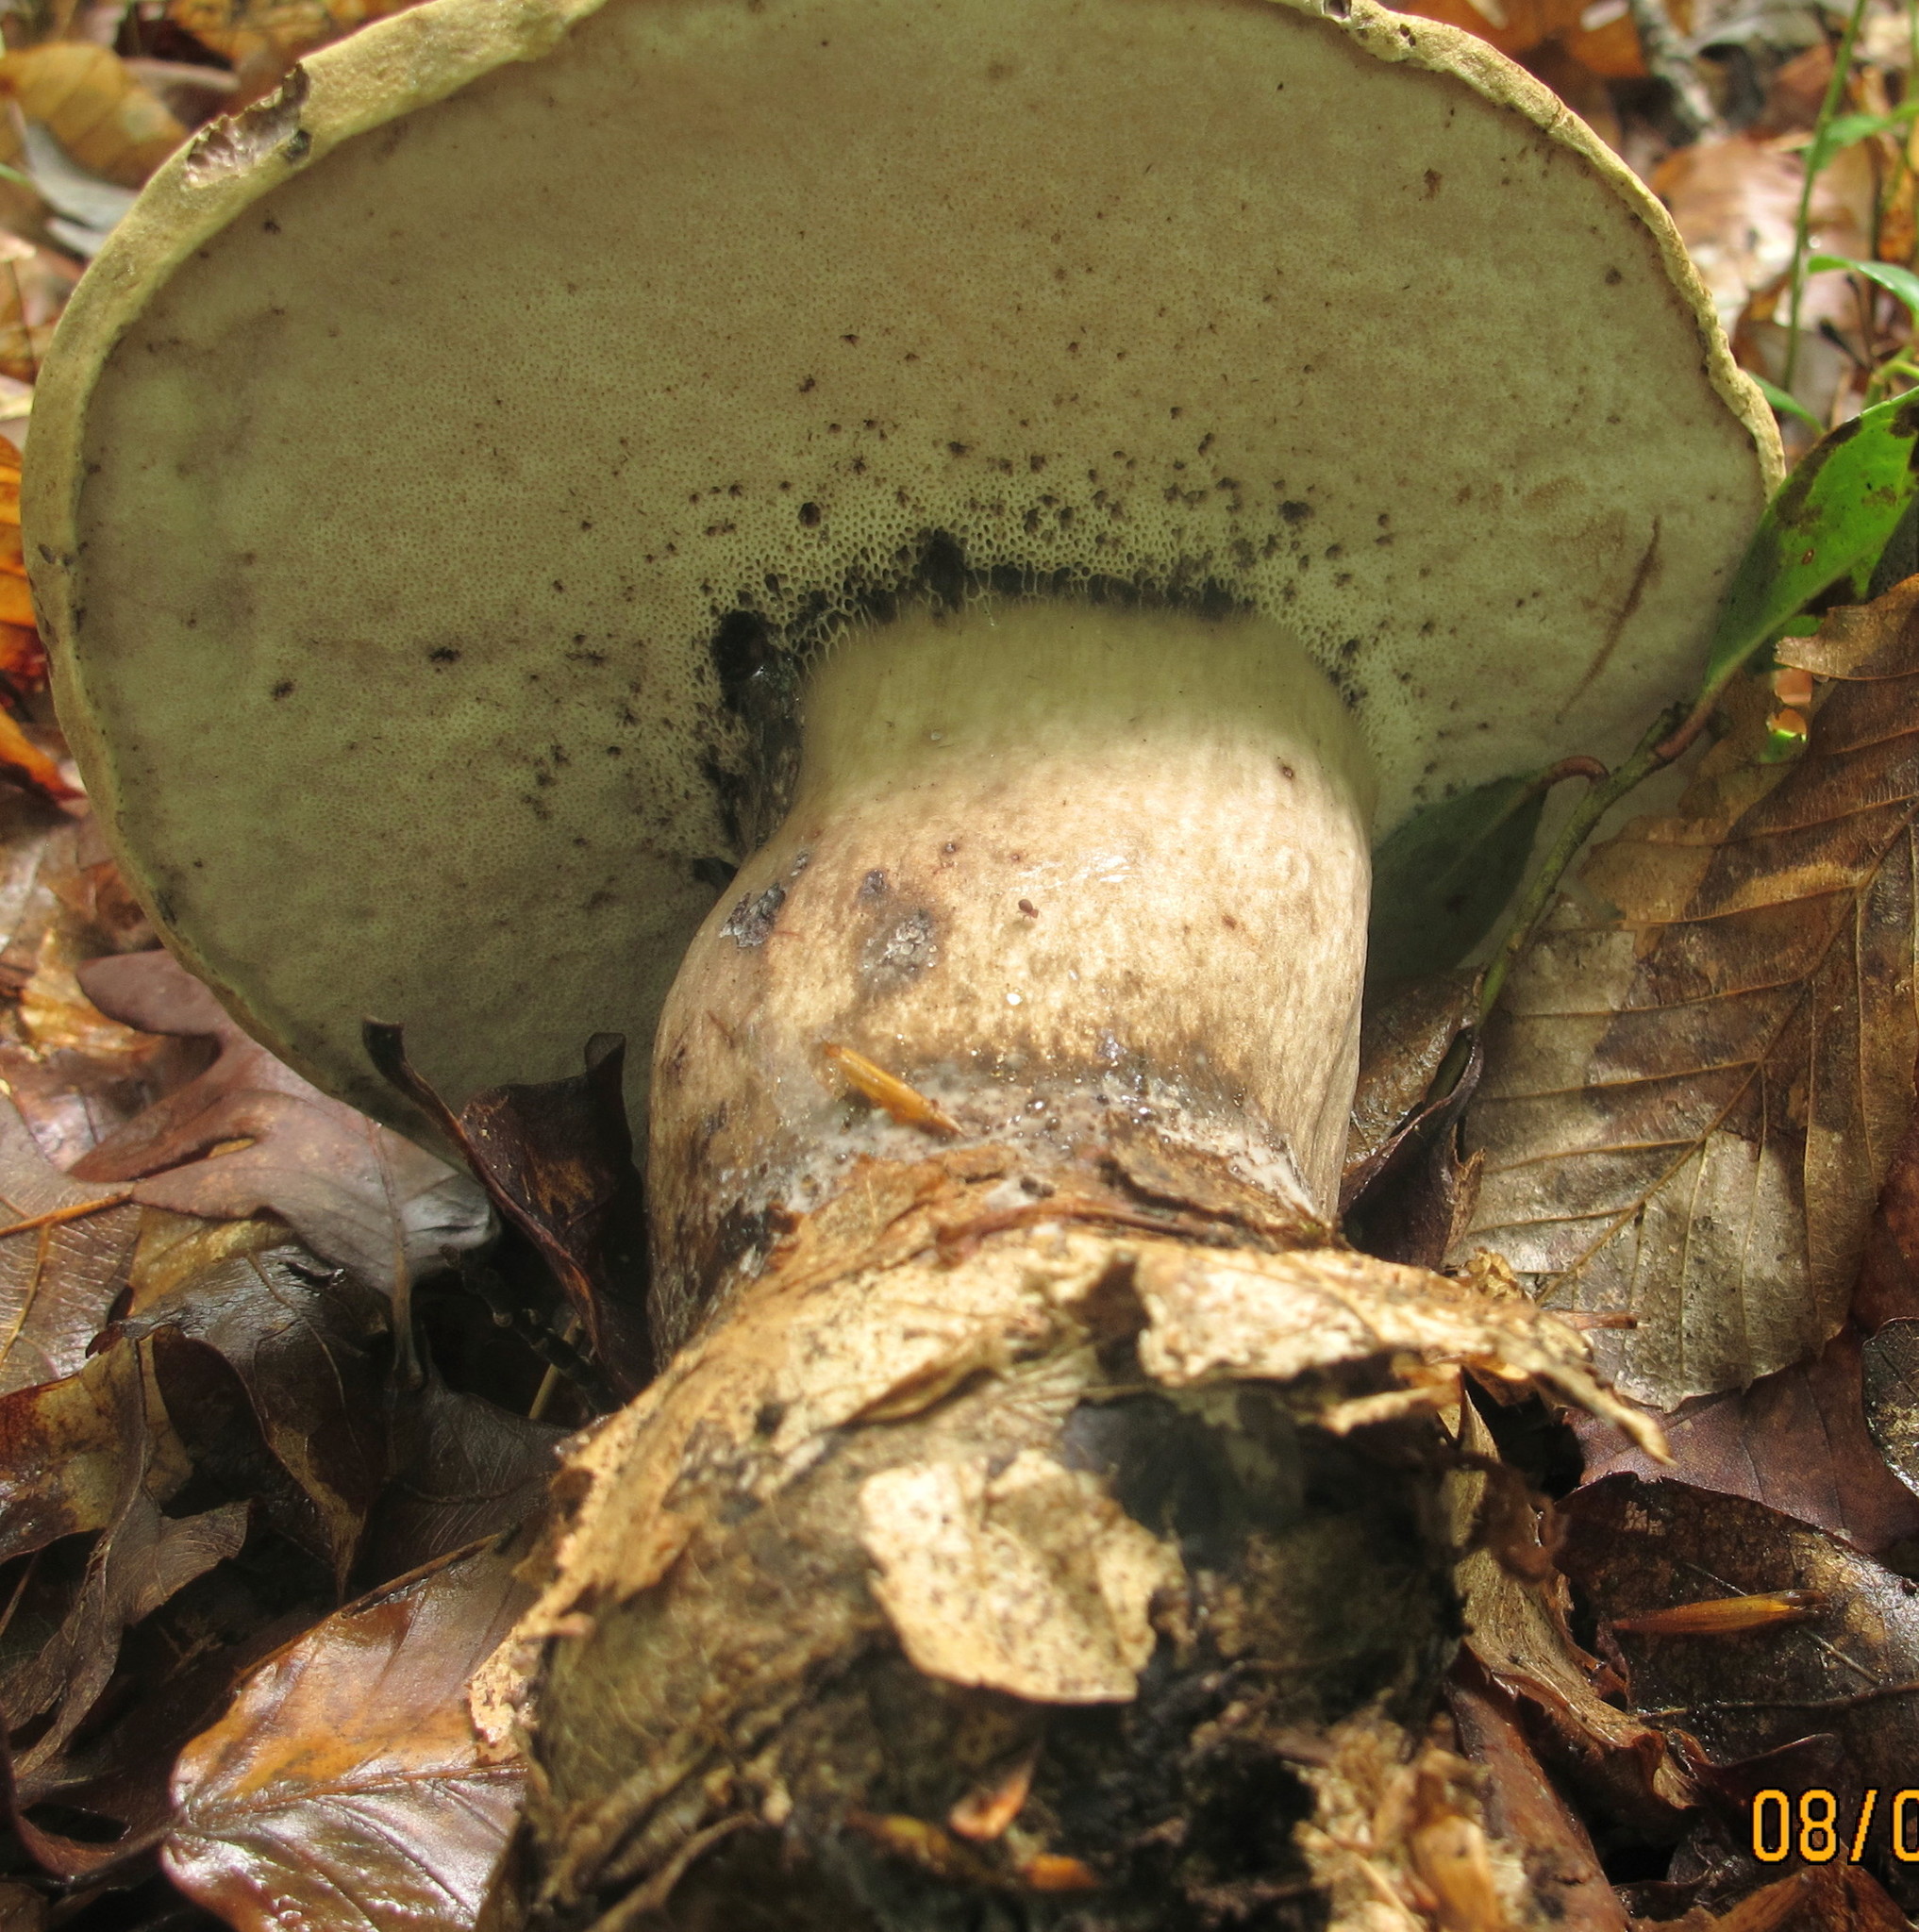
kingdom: Fungi
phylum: Basidiomycota
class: Agaricomycetes
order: Boletales
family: Boletaceae
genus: Tylopilus
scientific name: Tylopilus atronicotianus
